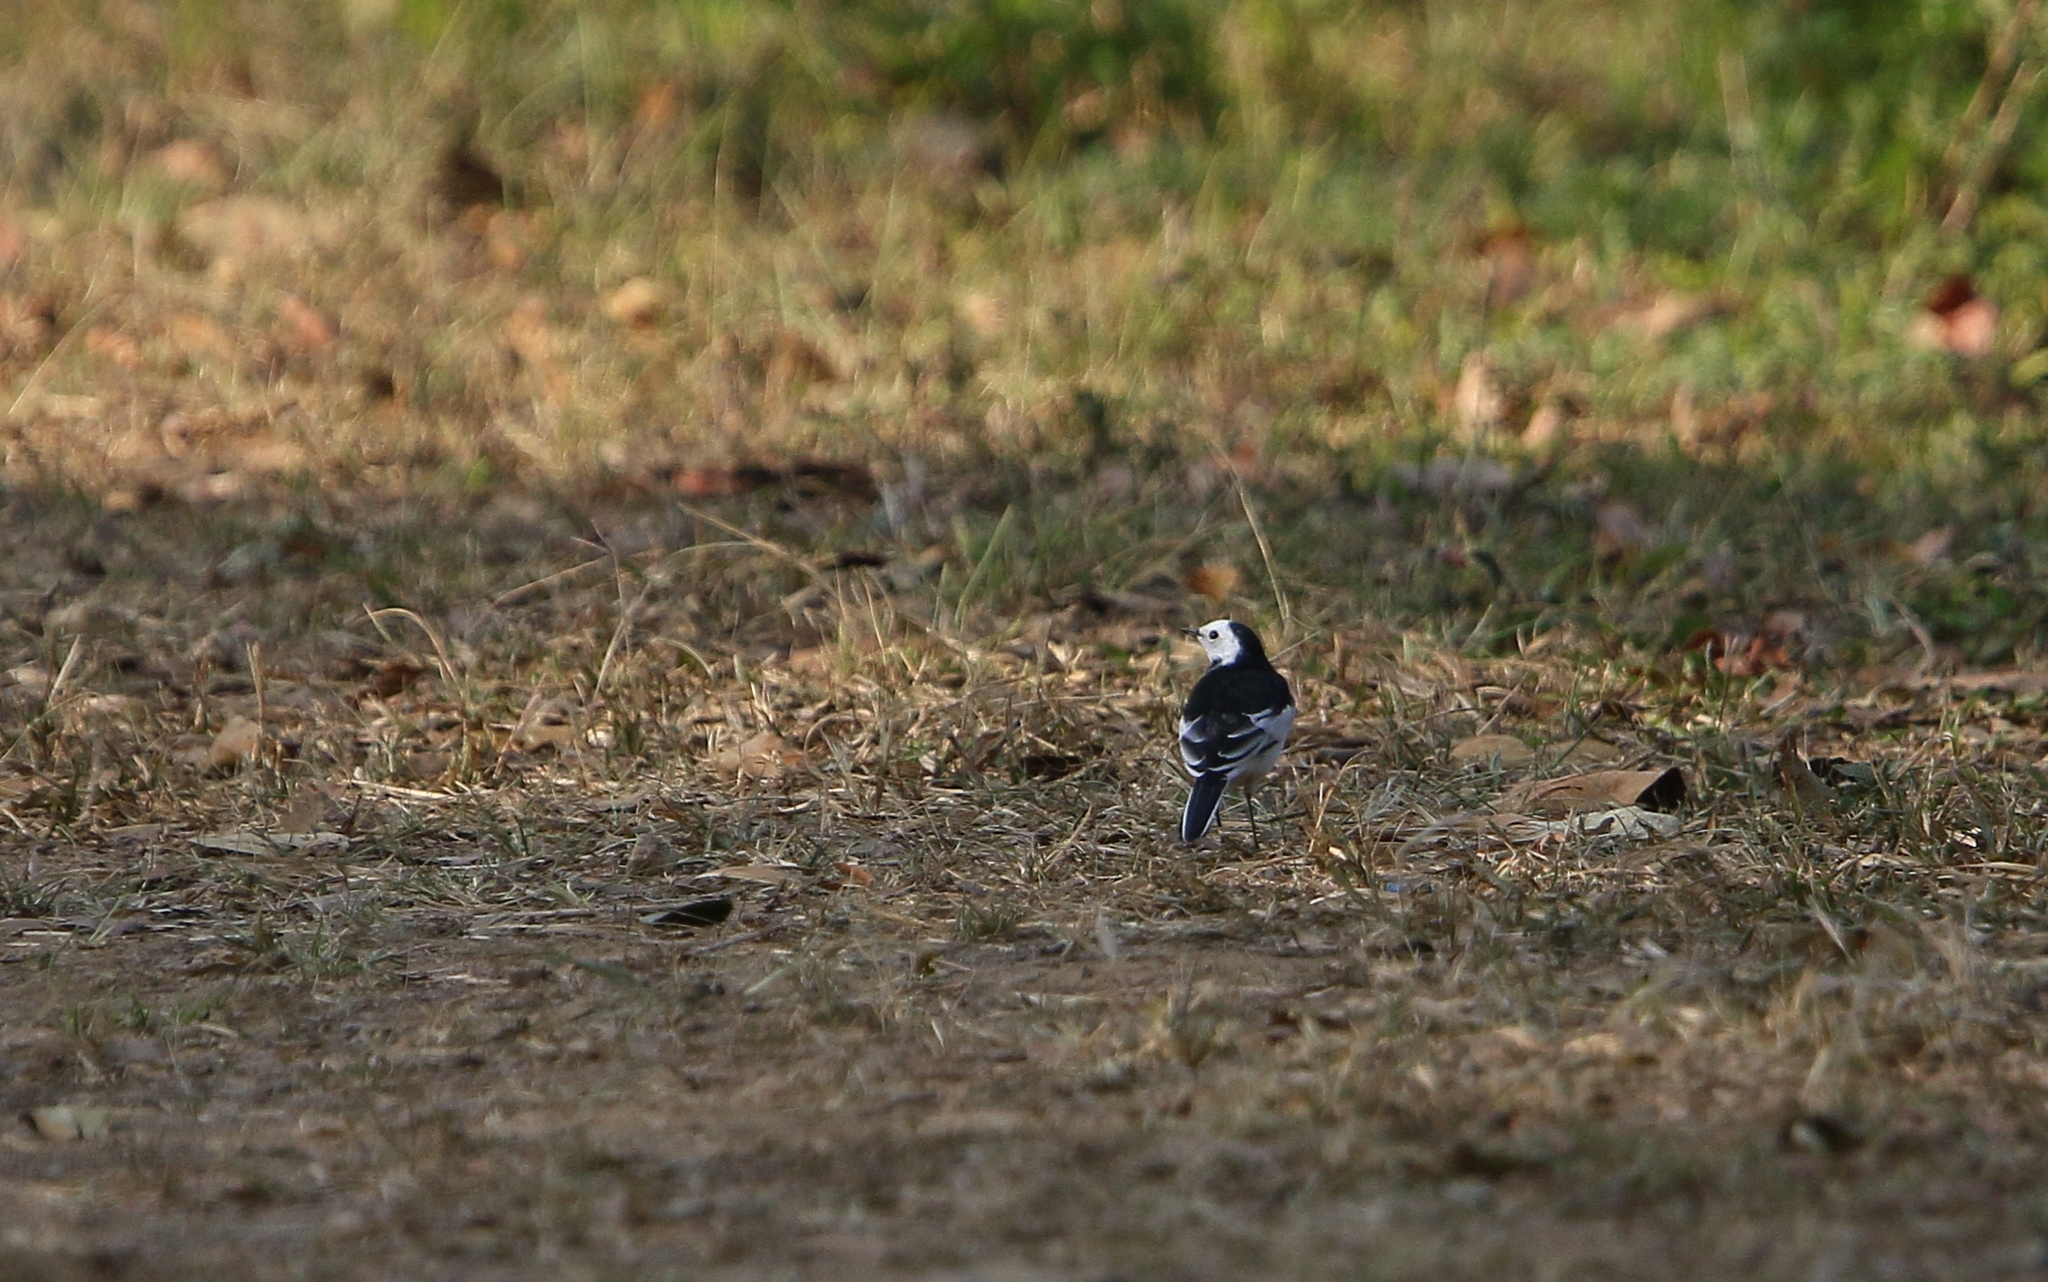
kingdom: Animalia
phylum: Chordata
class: Aves
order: Passeriformes
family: Motacillidae
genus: Motacilla
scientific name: Motacilla alba
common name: White wagtail
